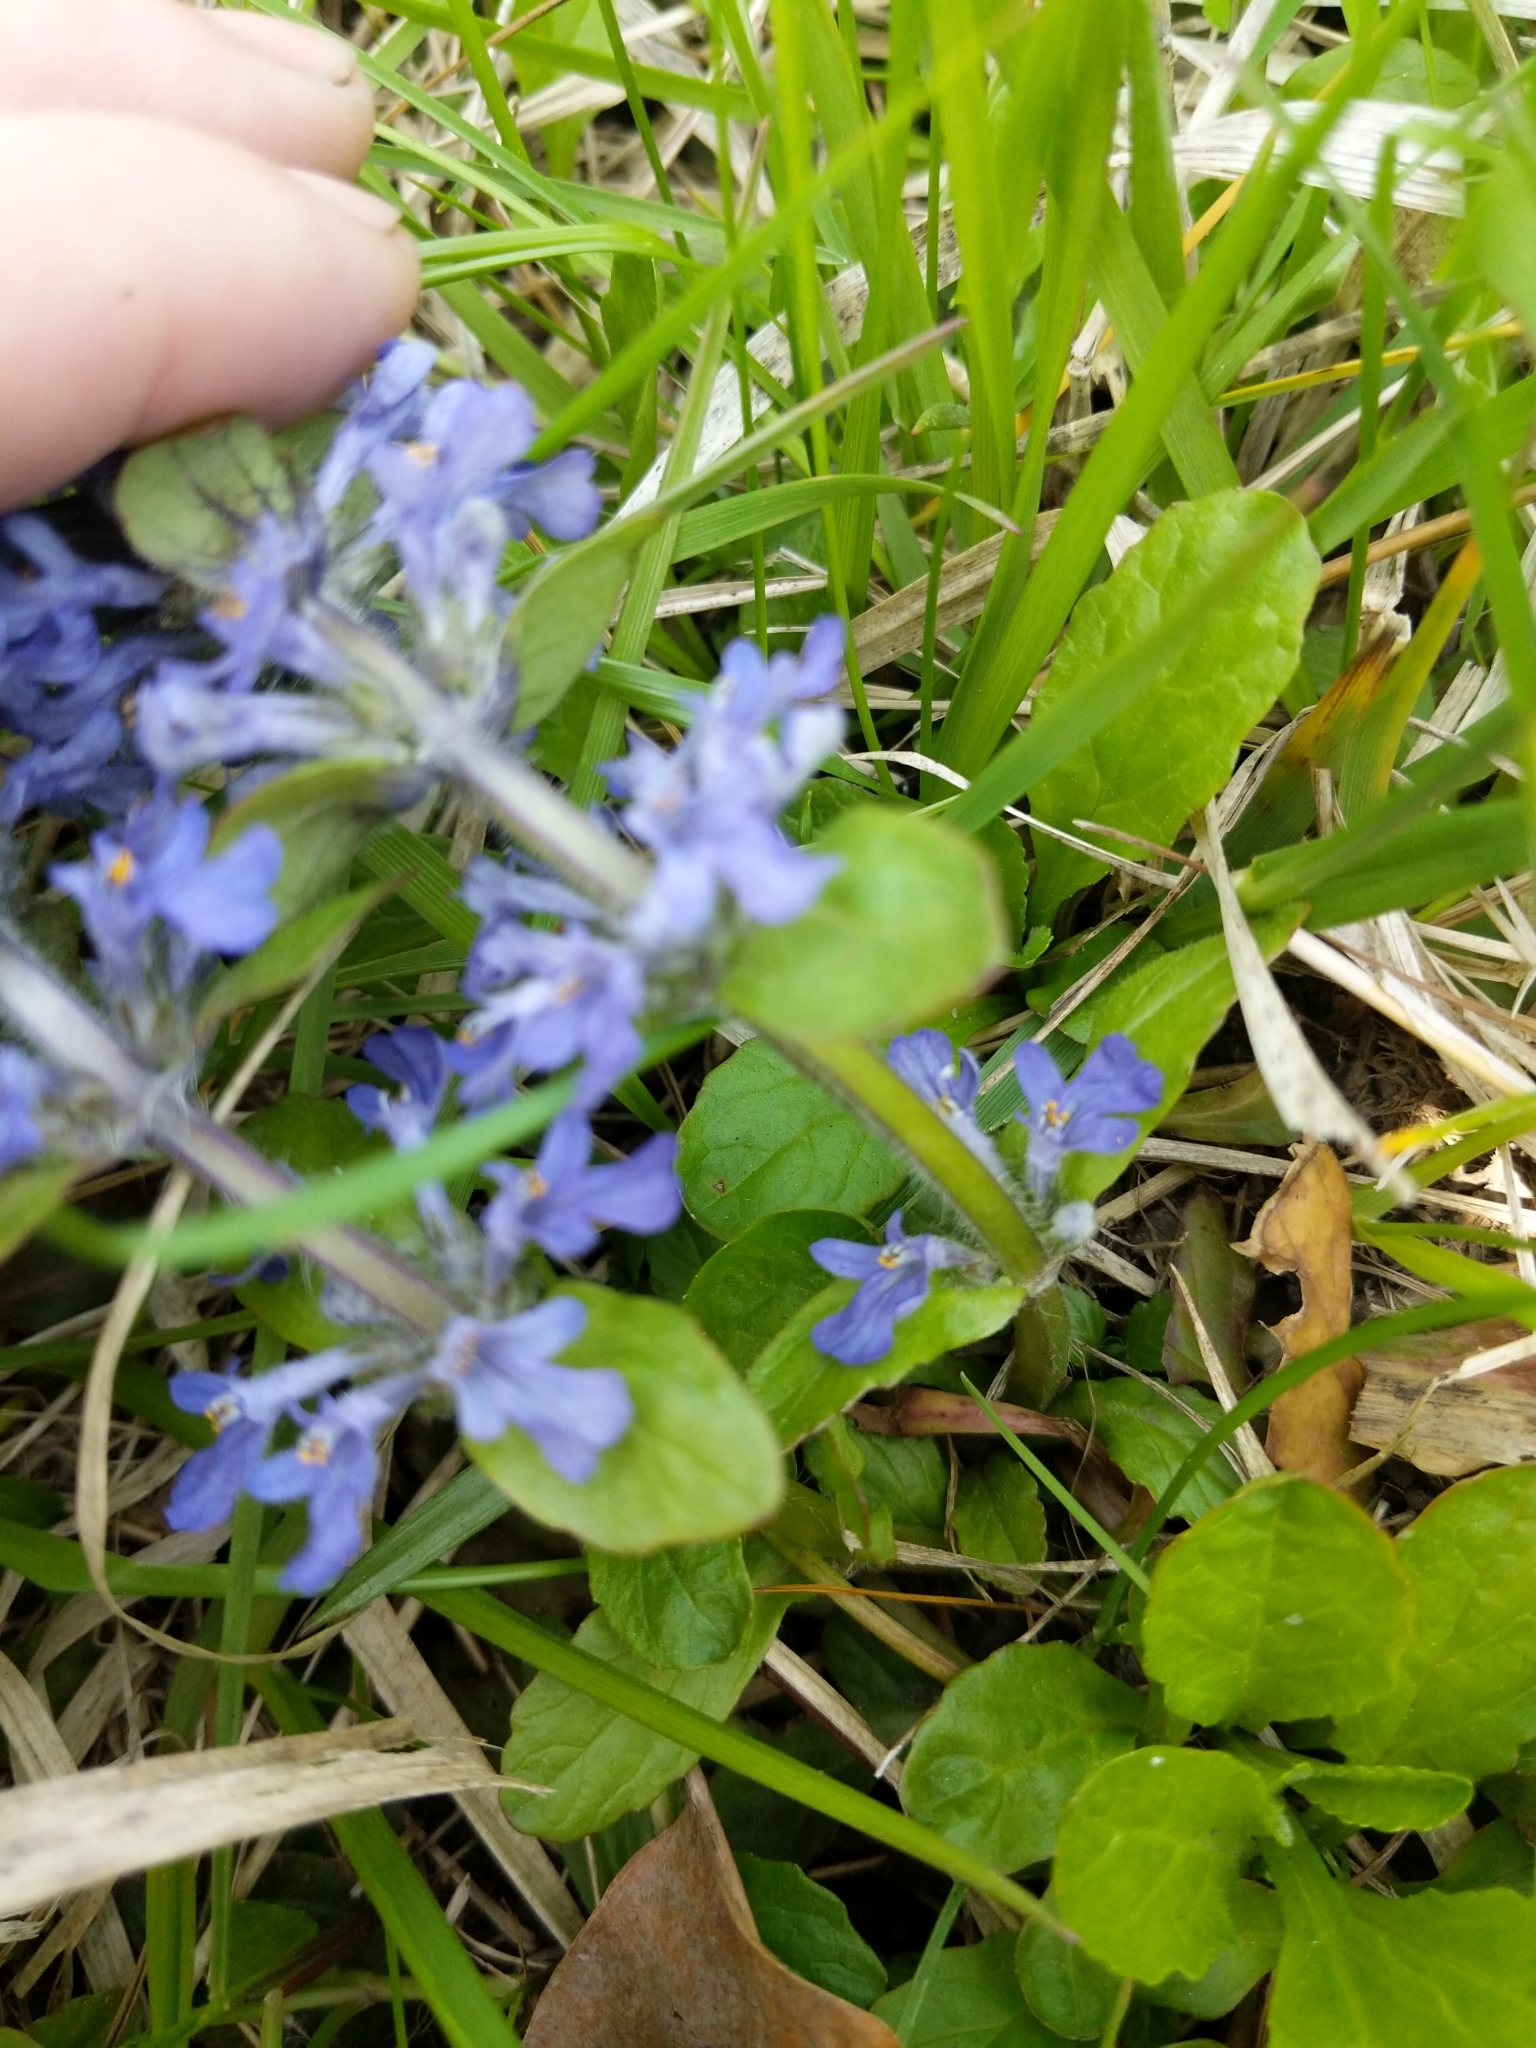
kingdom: Plantae
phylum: Tracheophyta
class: Magnoliopsida
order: Lamiales
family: Lamiaceae
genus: Ajuga
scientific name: Ajuga reptans
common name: Bugle
